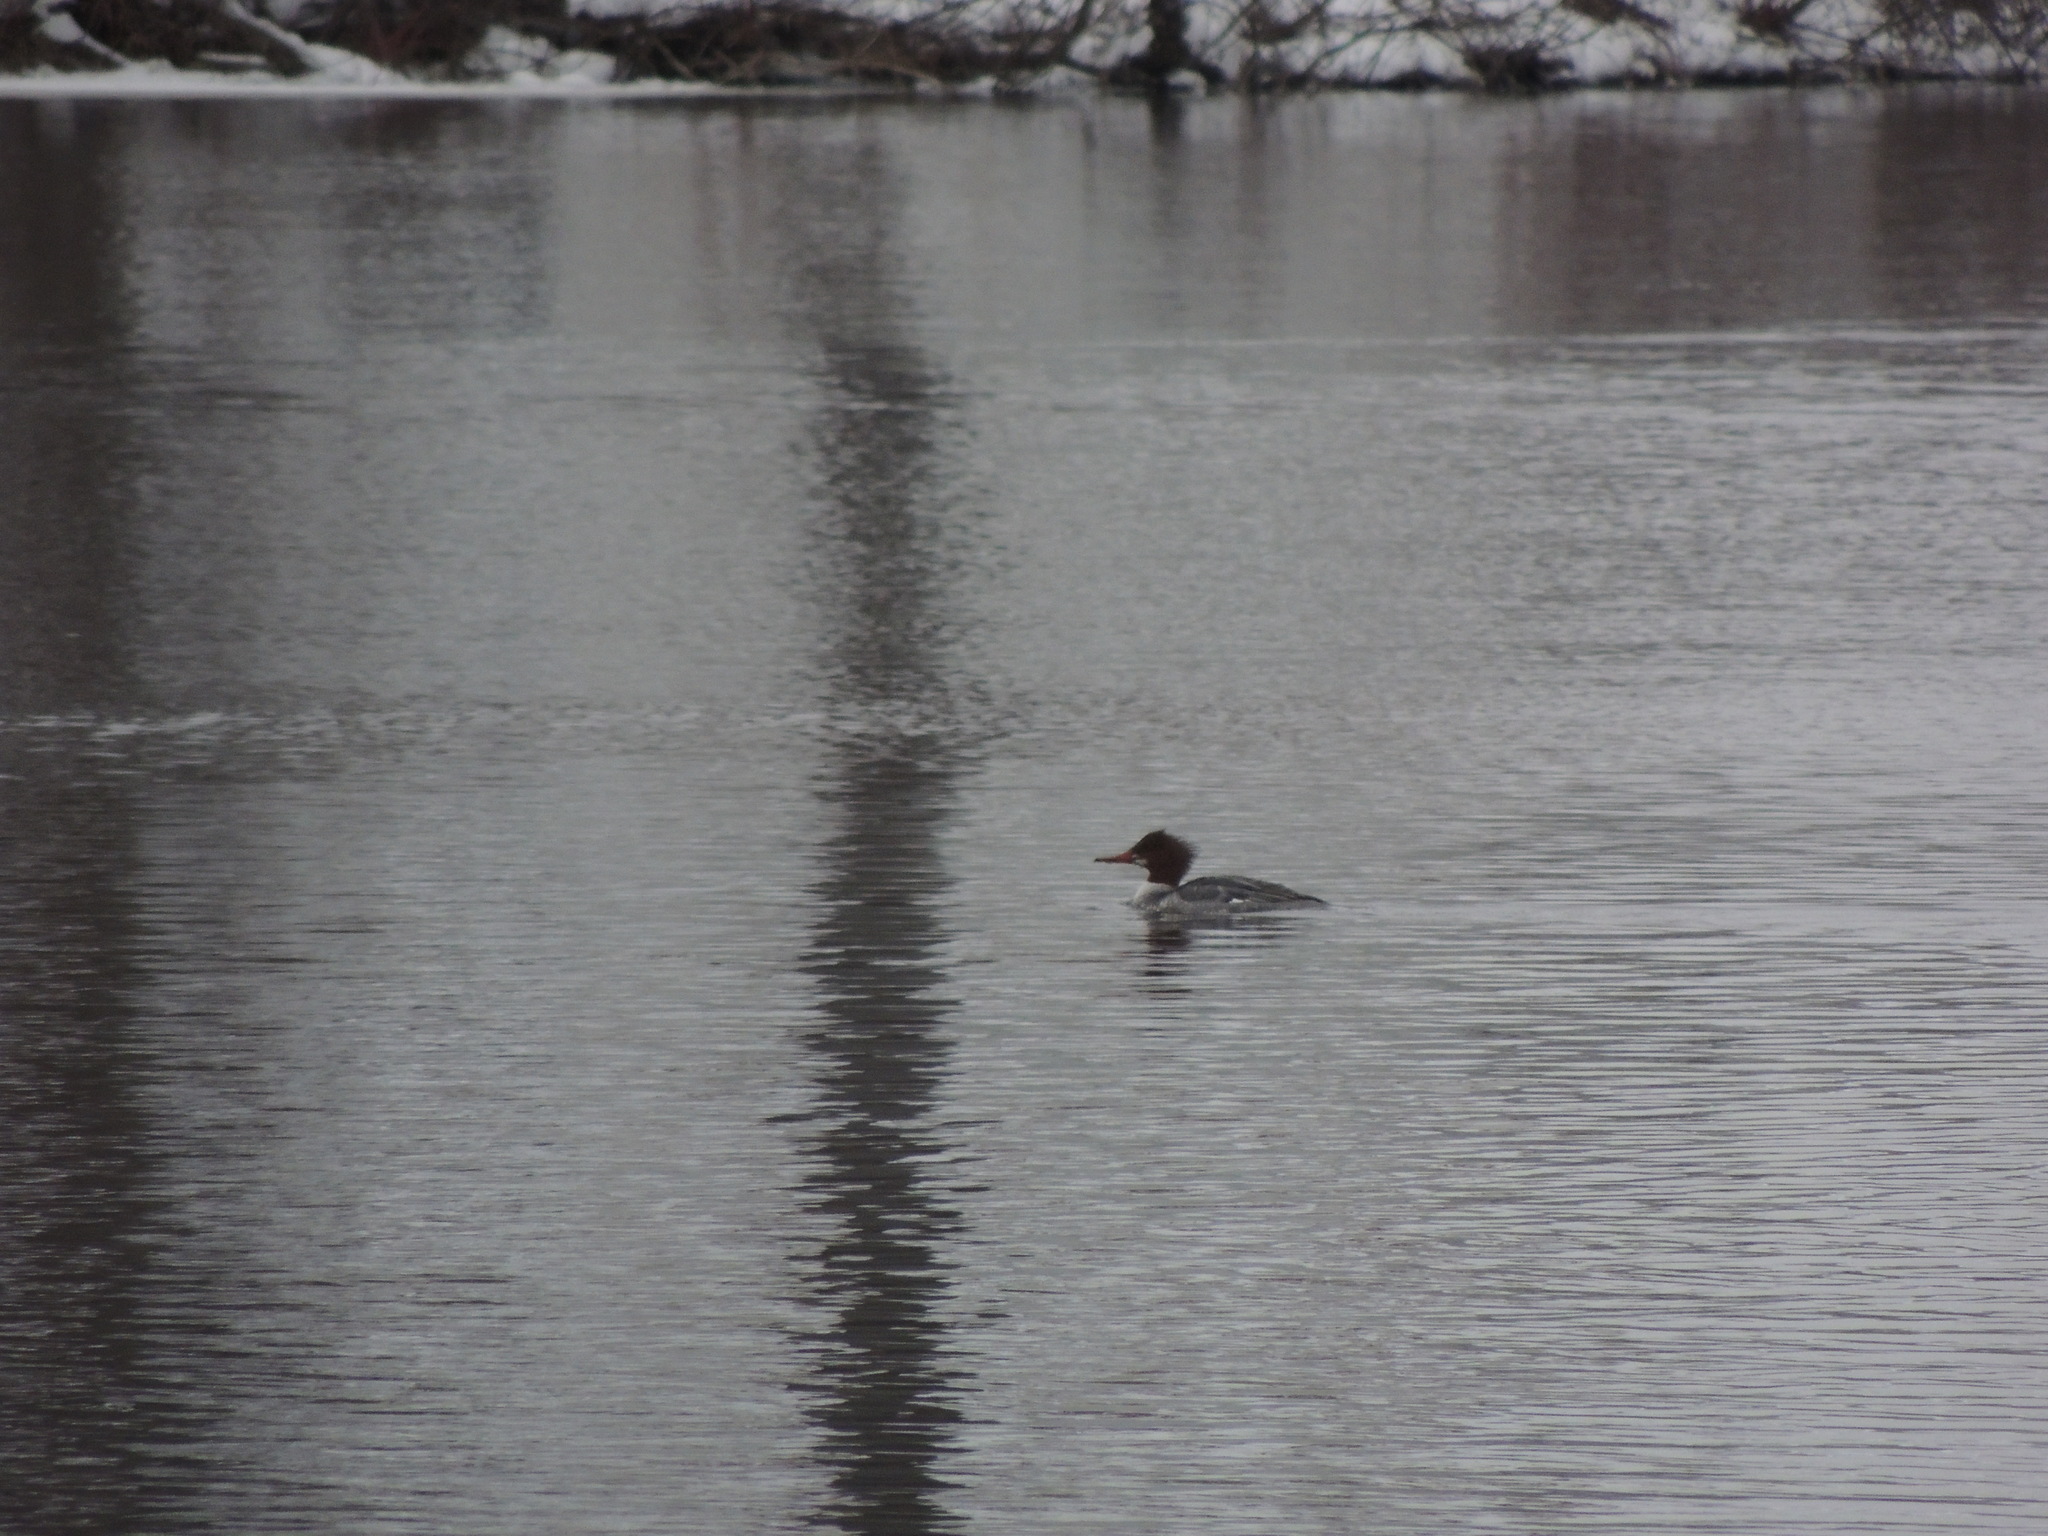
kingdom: Animalia
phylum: Chordata
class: Aves
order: Anseriformes
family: Anatidae
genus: Mergus
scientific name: Mergus merganser
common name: Common merganser
